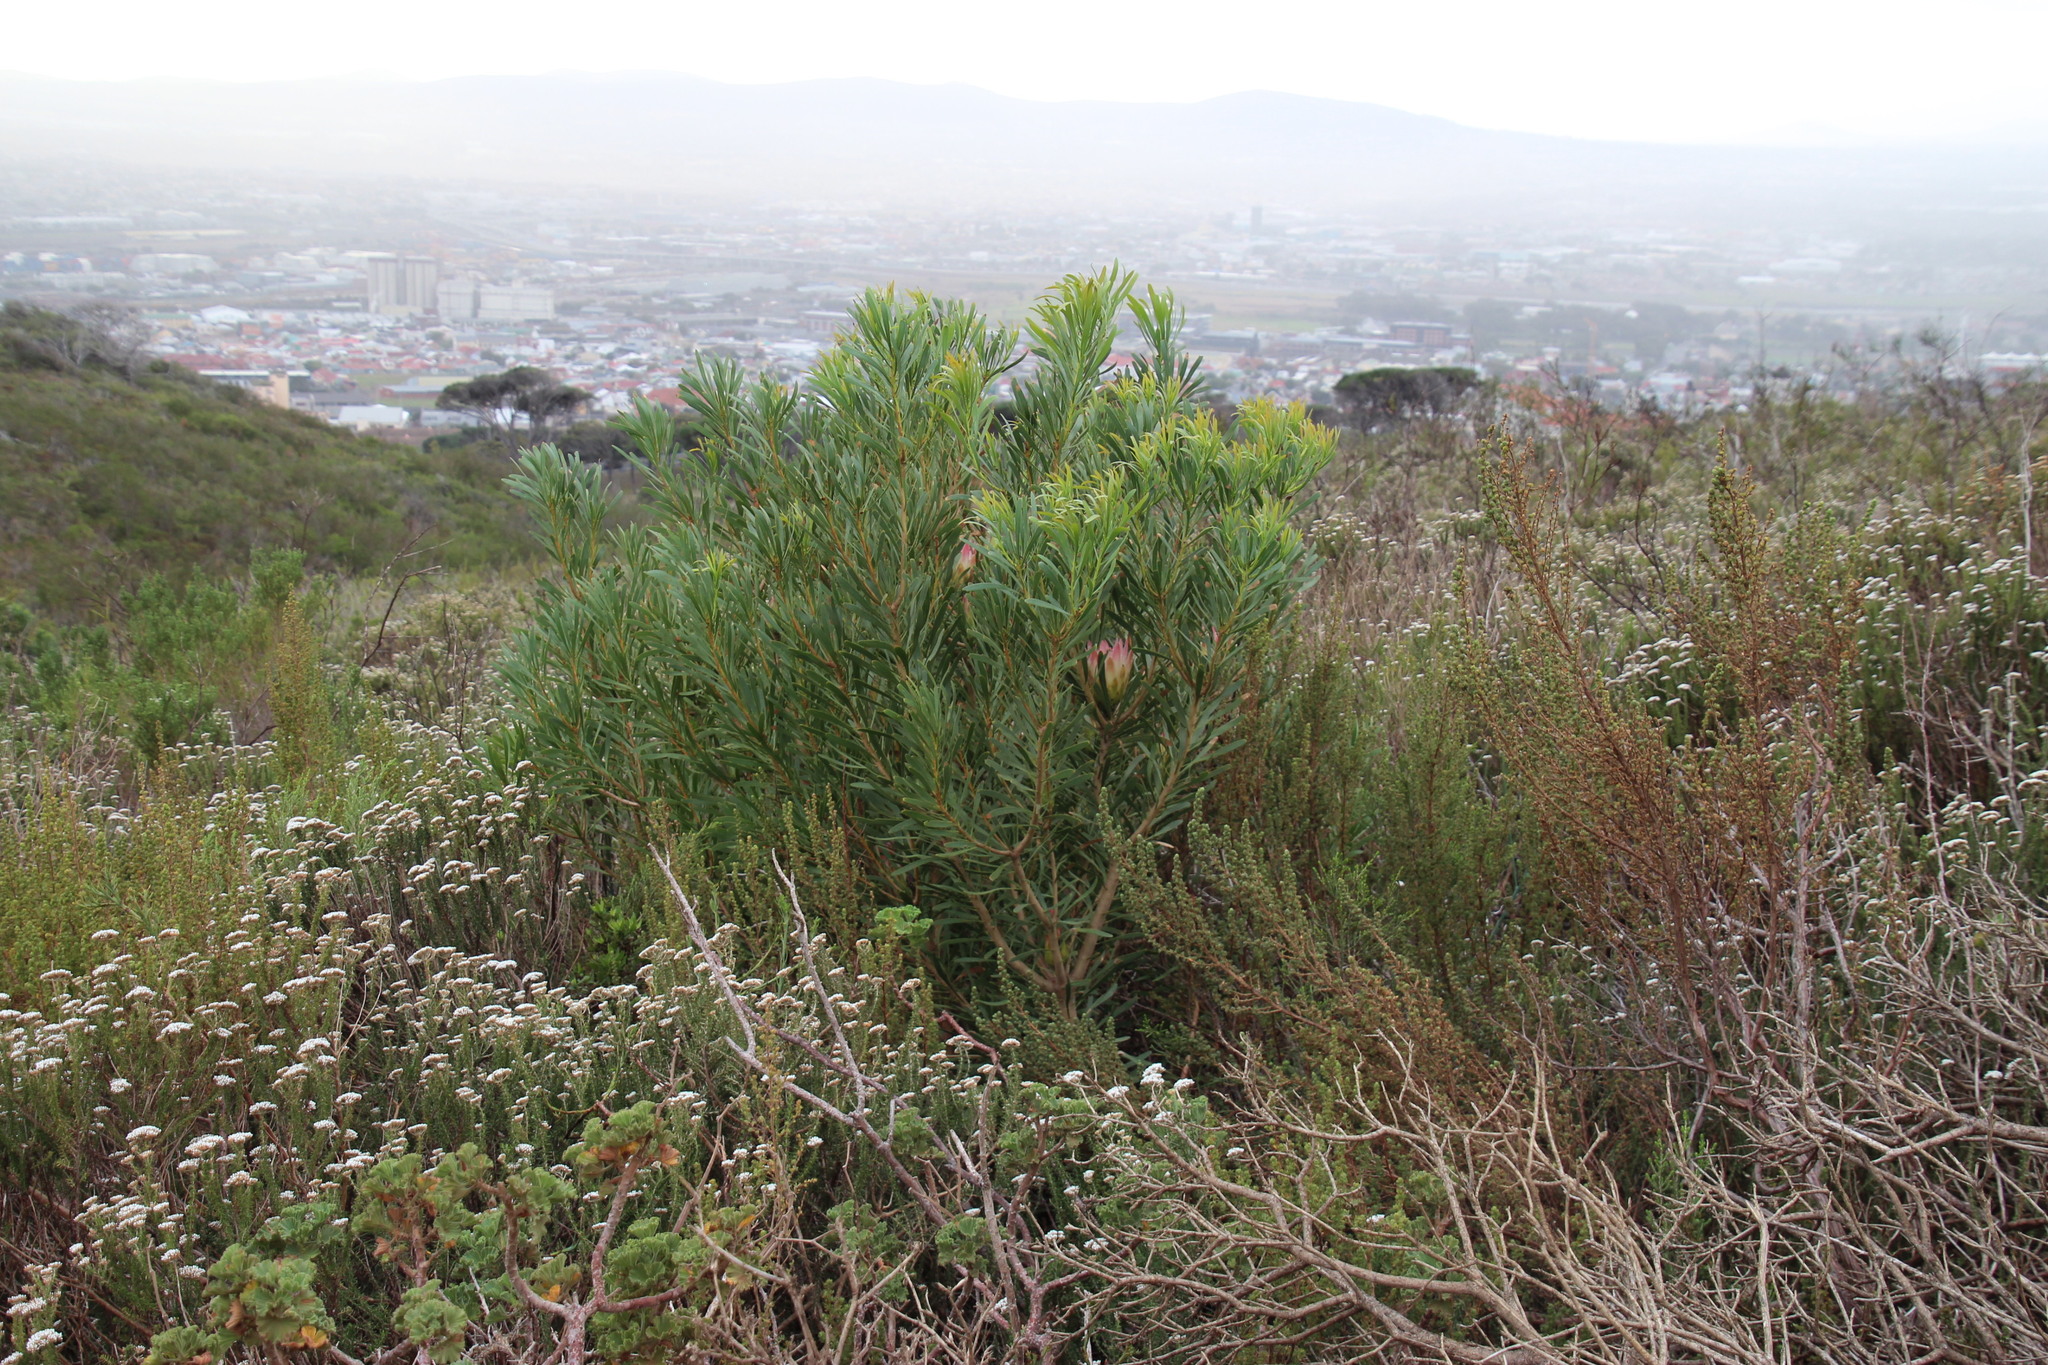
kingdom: Plantae
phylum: Tracheophyta
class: Magnoliopsida
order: Proteales
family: Proteaceae
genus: Protea
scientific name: Protea repens
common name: Sugarbush
